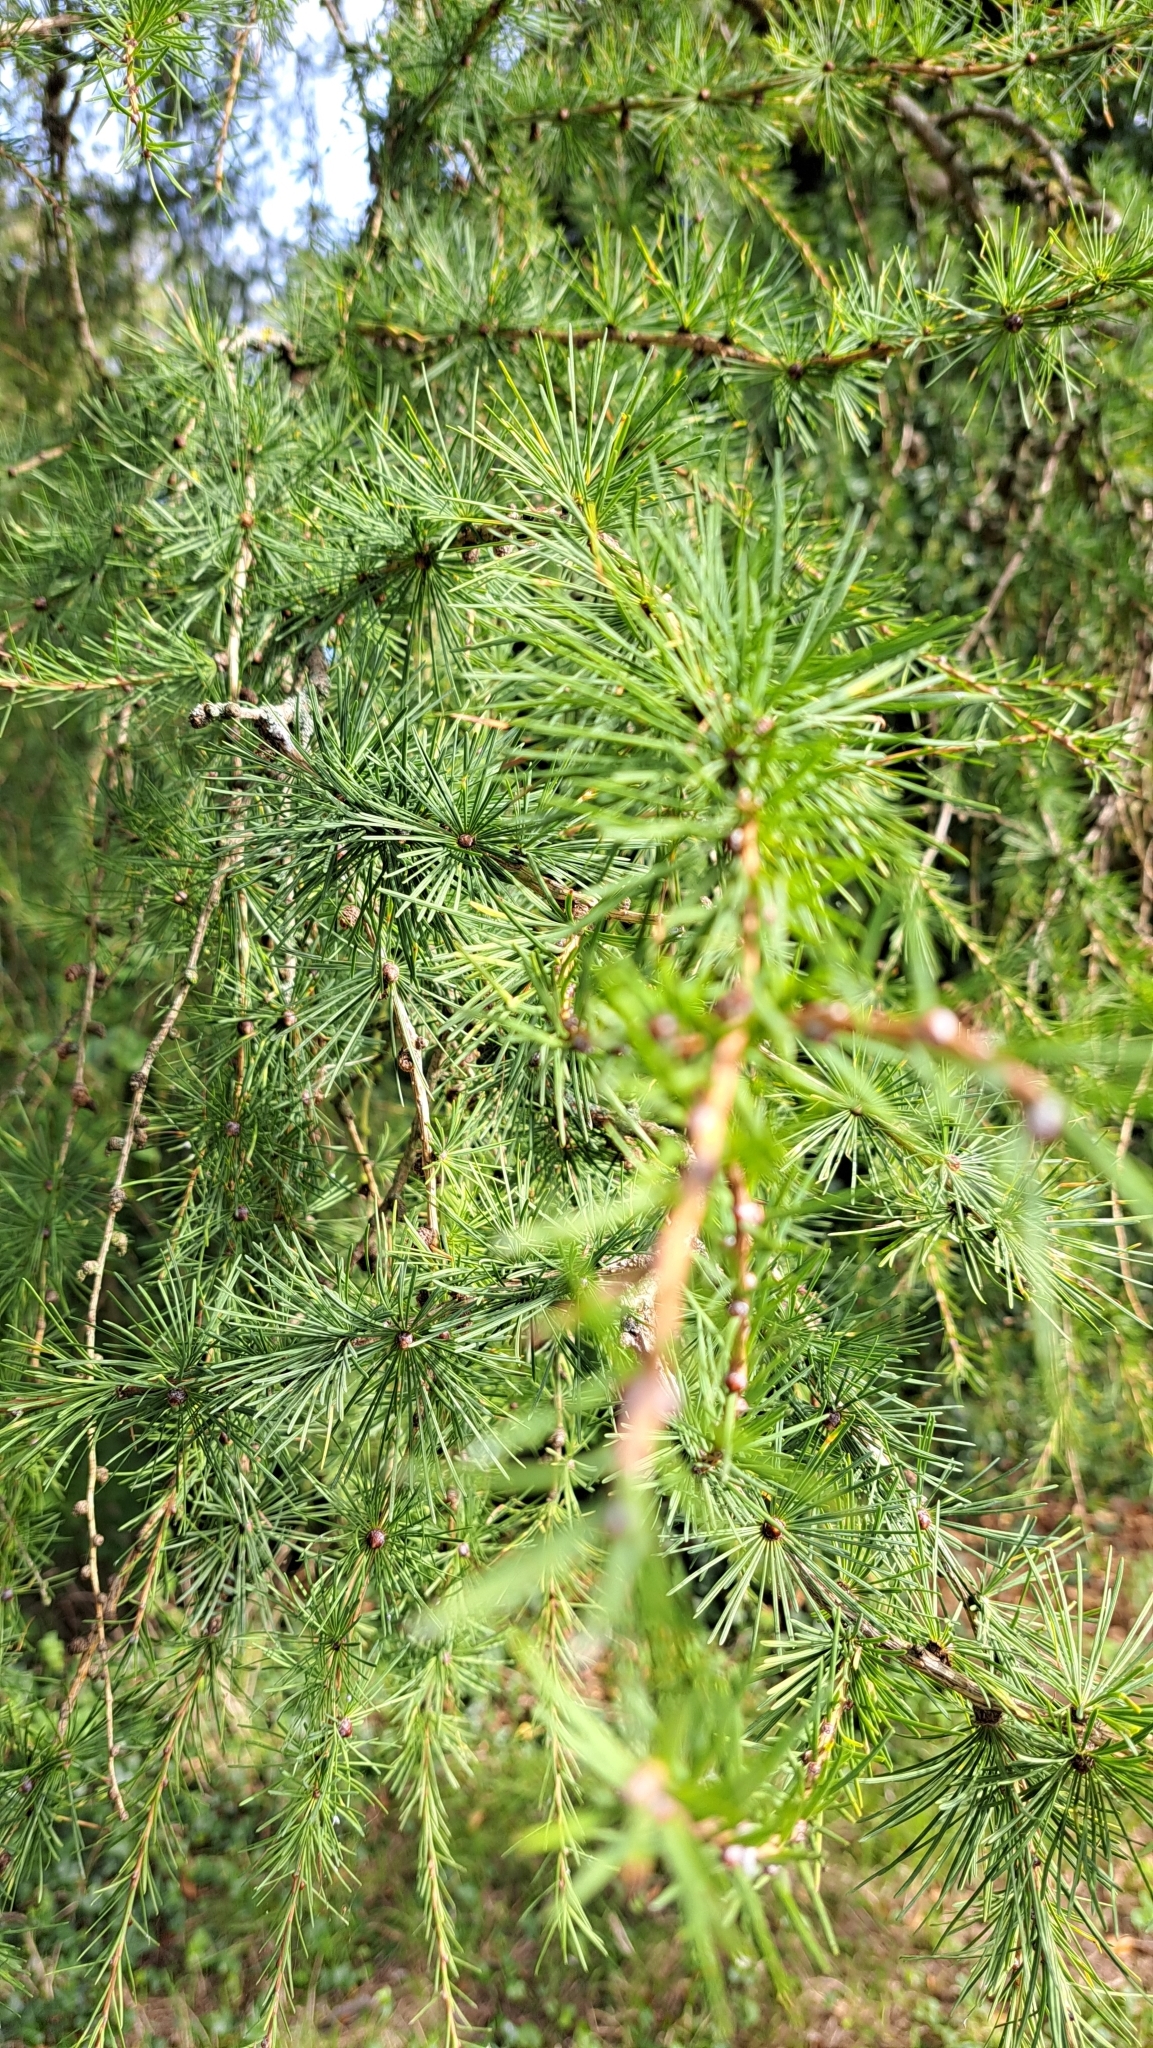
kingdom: Plantae
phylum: Tracheophyta
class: Pinopsida
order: Pinales
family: Pinaceae
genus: Larix
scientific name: Larix decidua
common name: European larch
